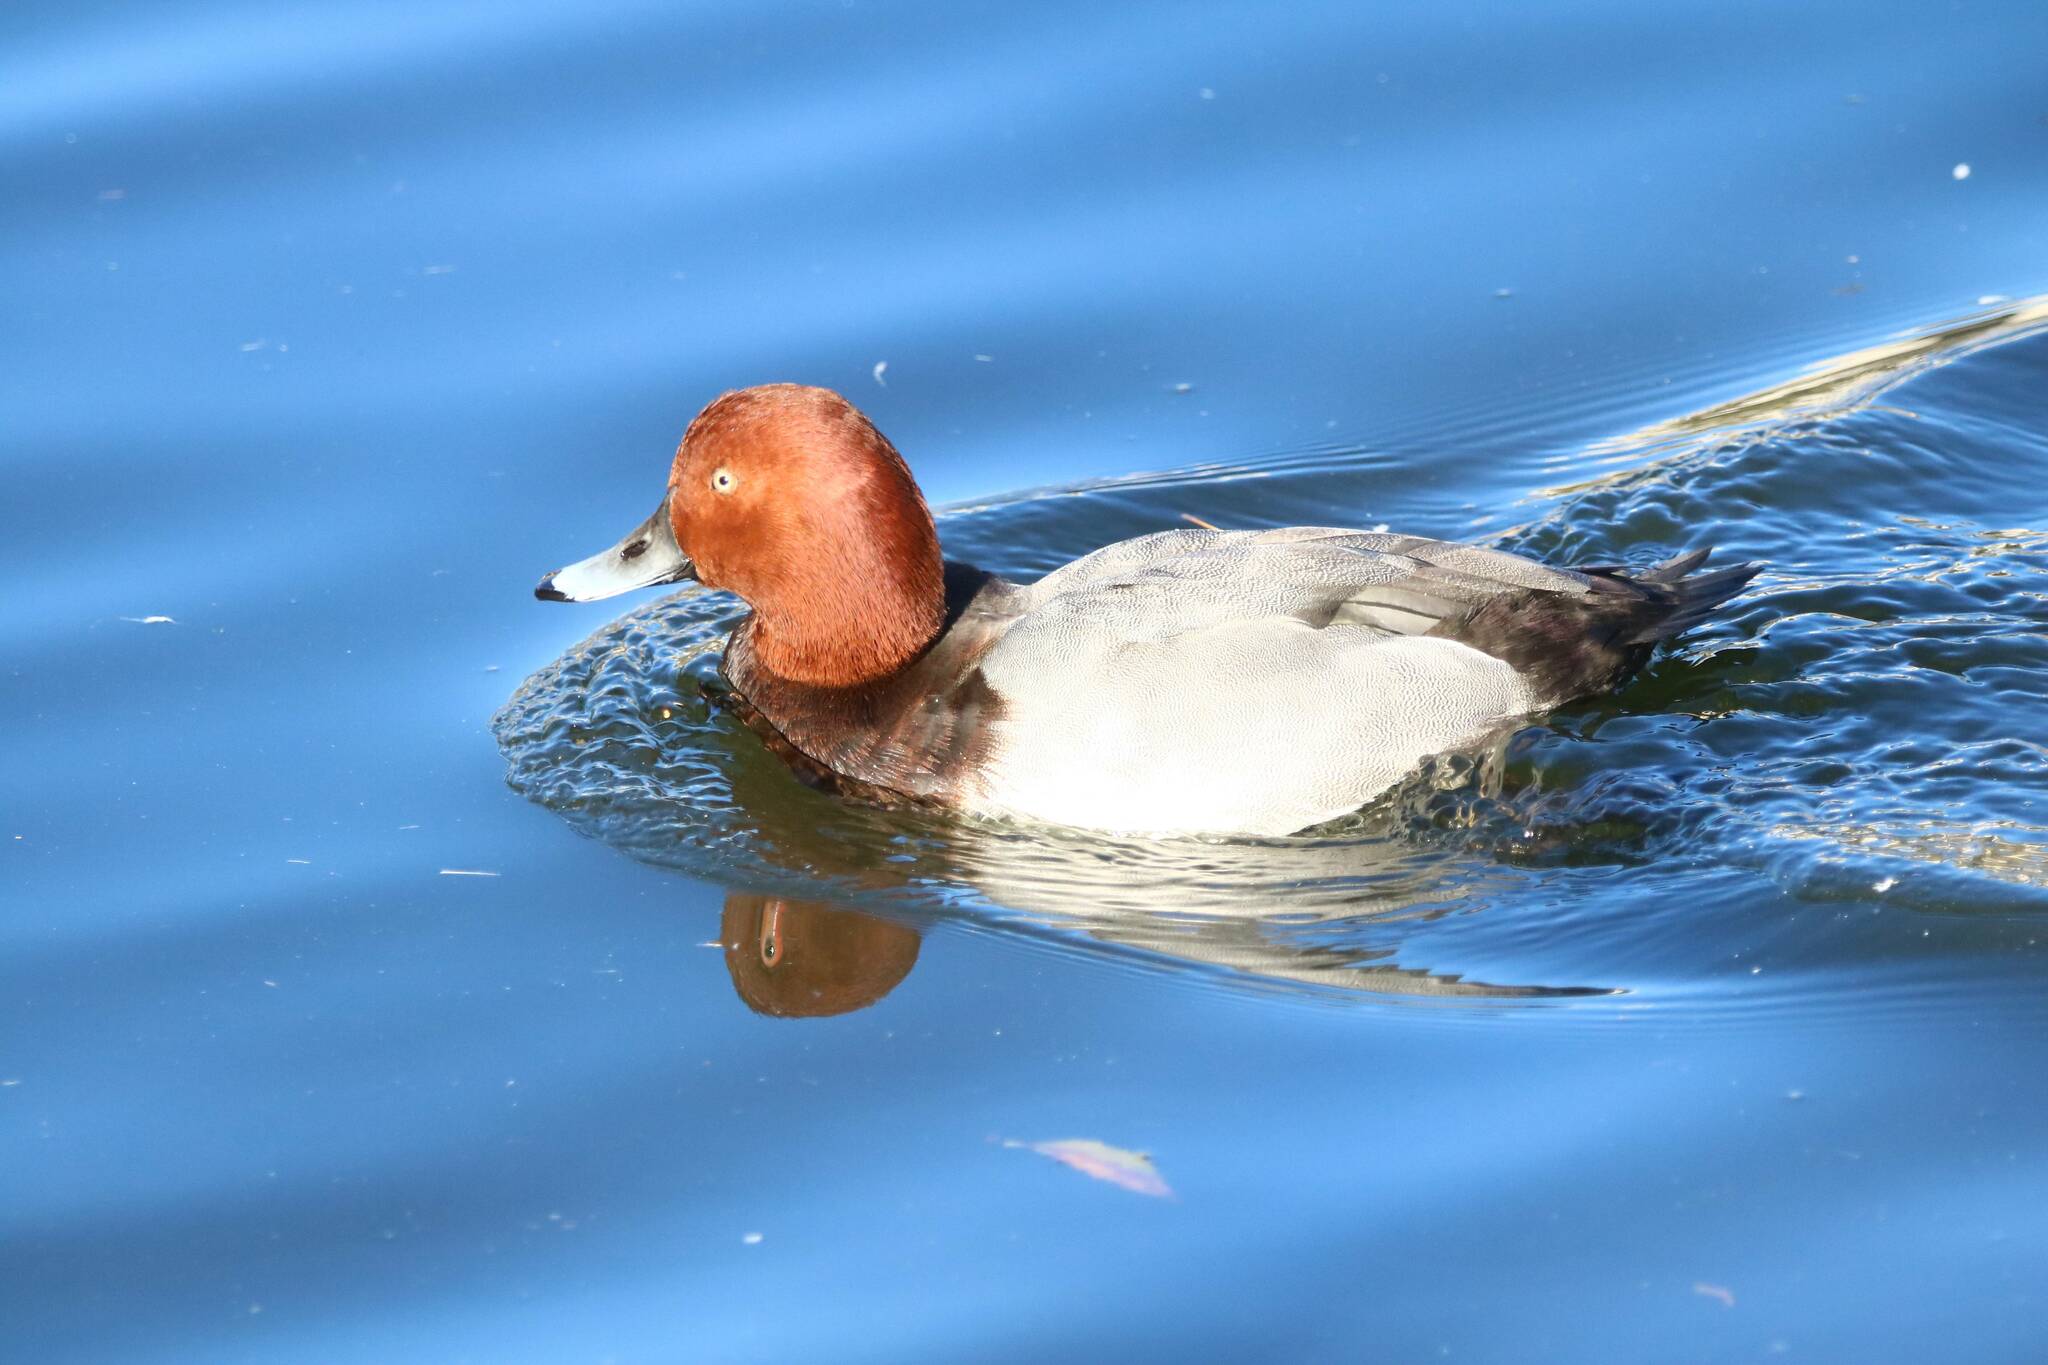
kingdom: Animalia
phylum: Chordata
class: Aves
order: Anseriformes
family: Anatidae
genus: Aythya
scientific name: Aythya ferina
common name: Common pochard
